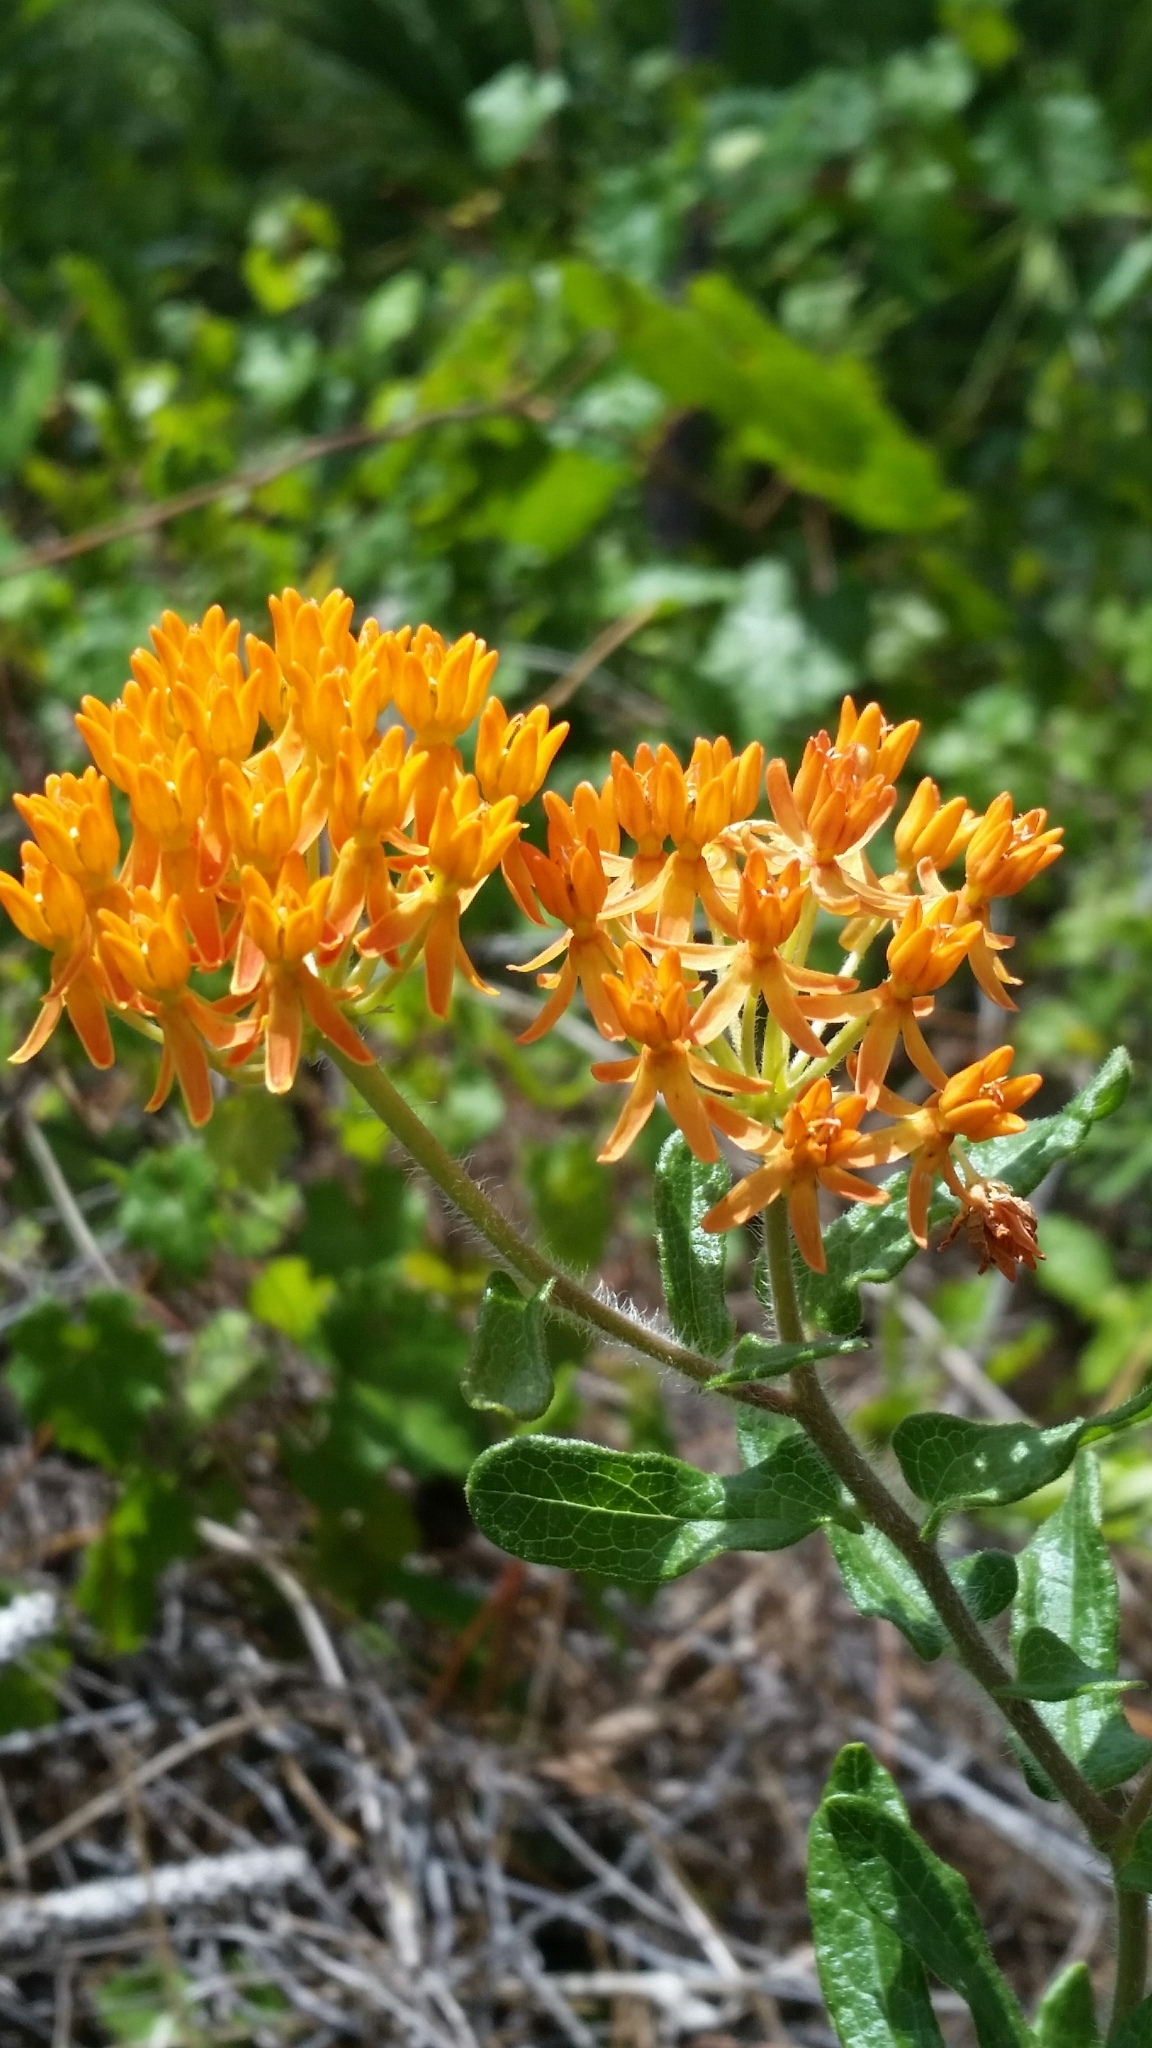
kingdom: Plantae
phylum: Tracheophyta
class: Magnoliopsida
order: Gentianales
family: Apocynaceae
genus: Asclepias
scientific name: Asclepias tuberosa
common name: Butterfly milkweed
